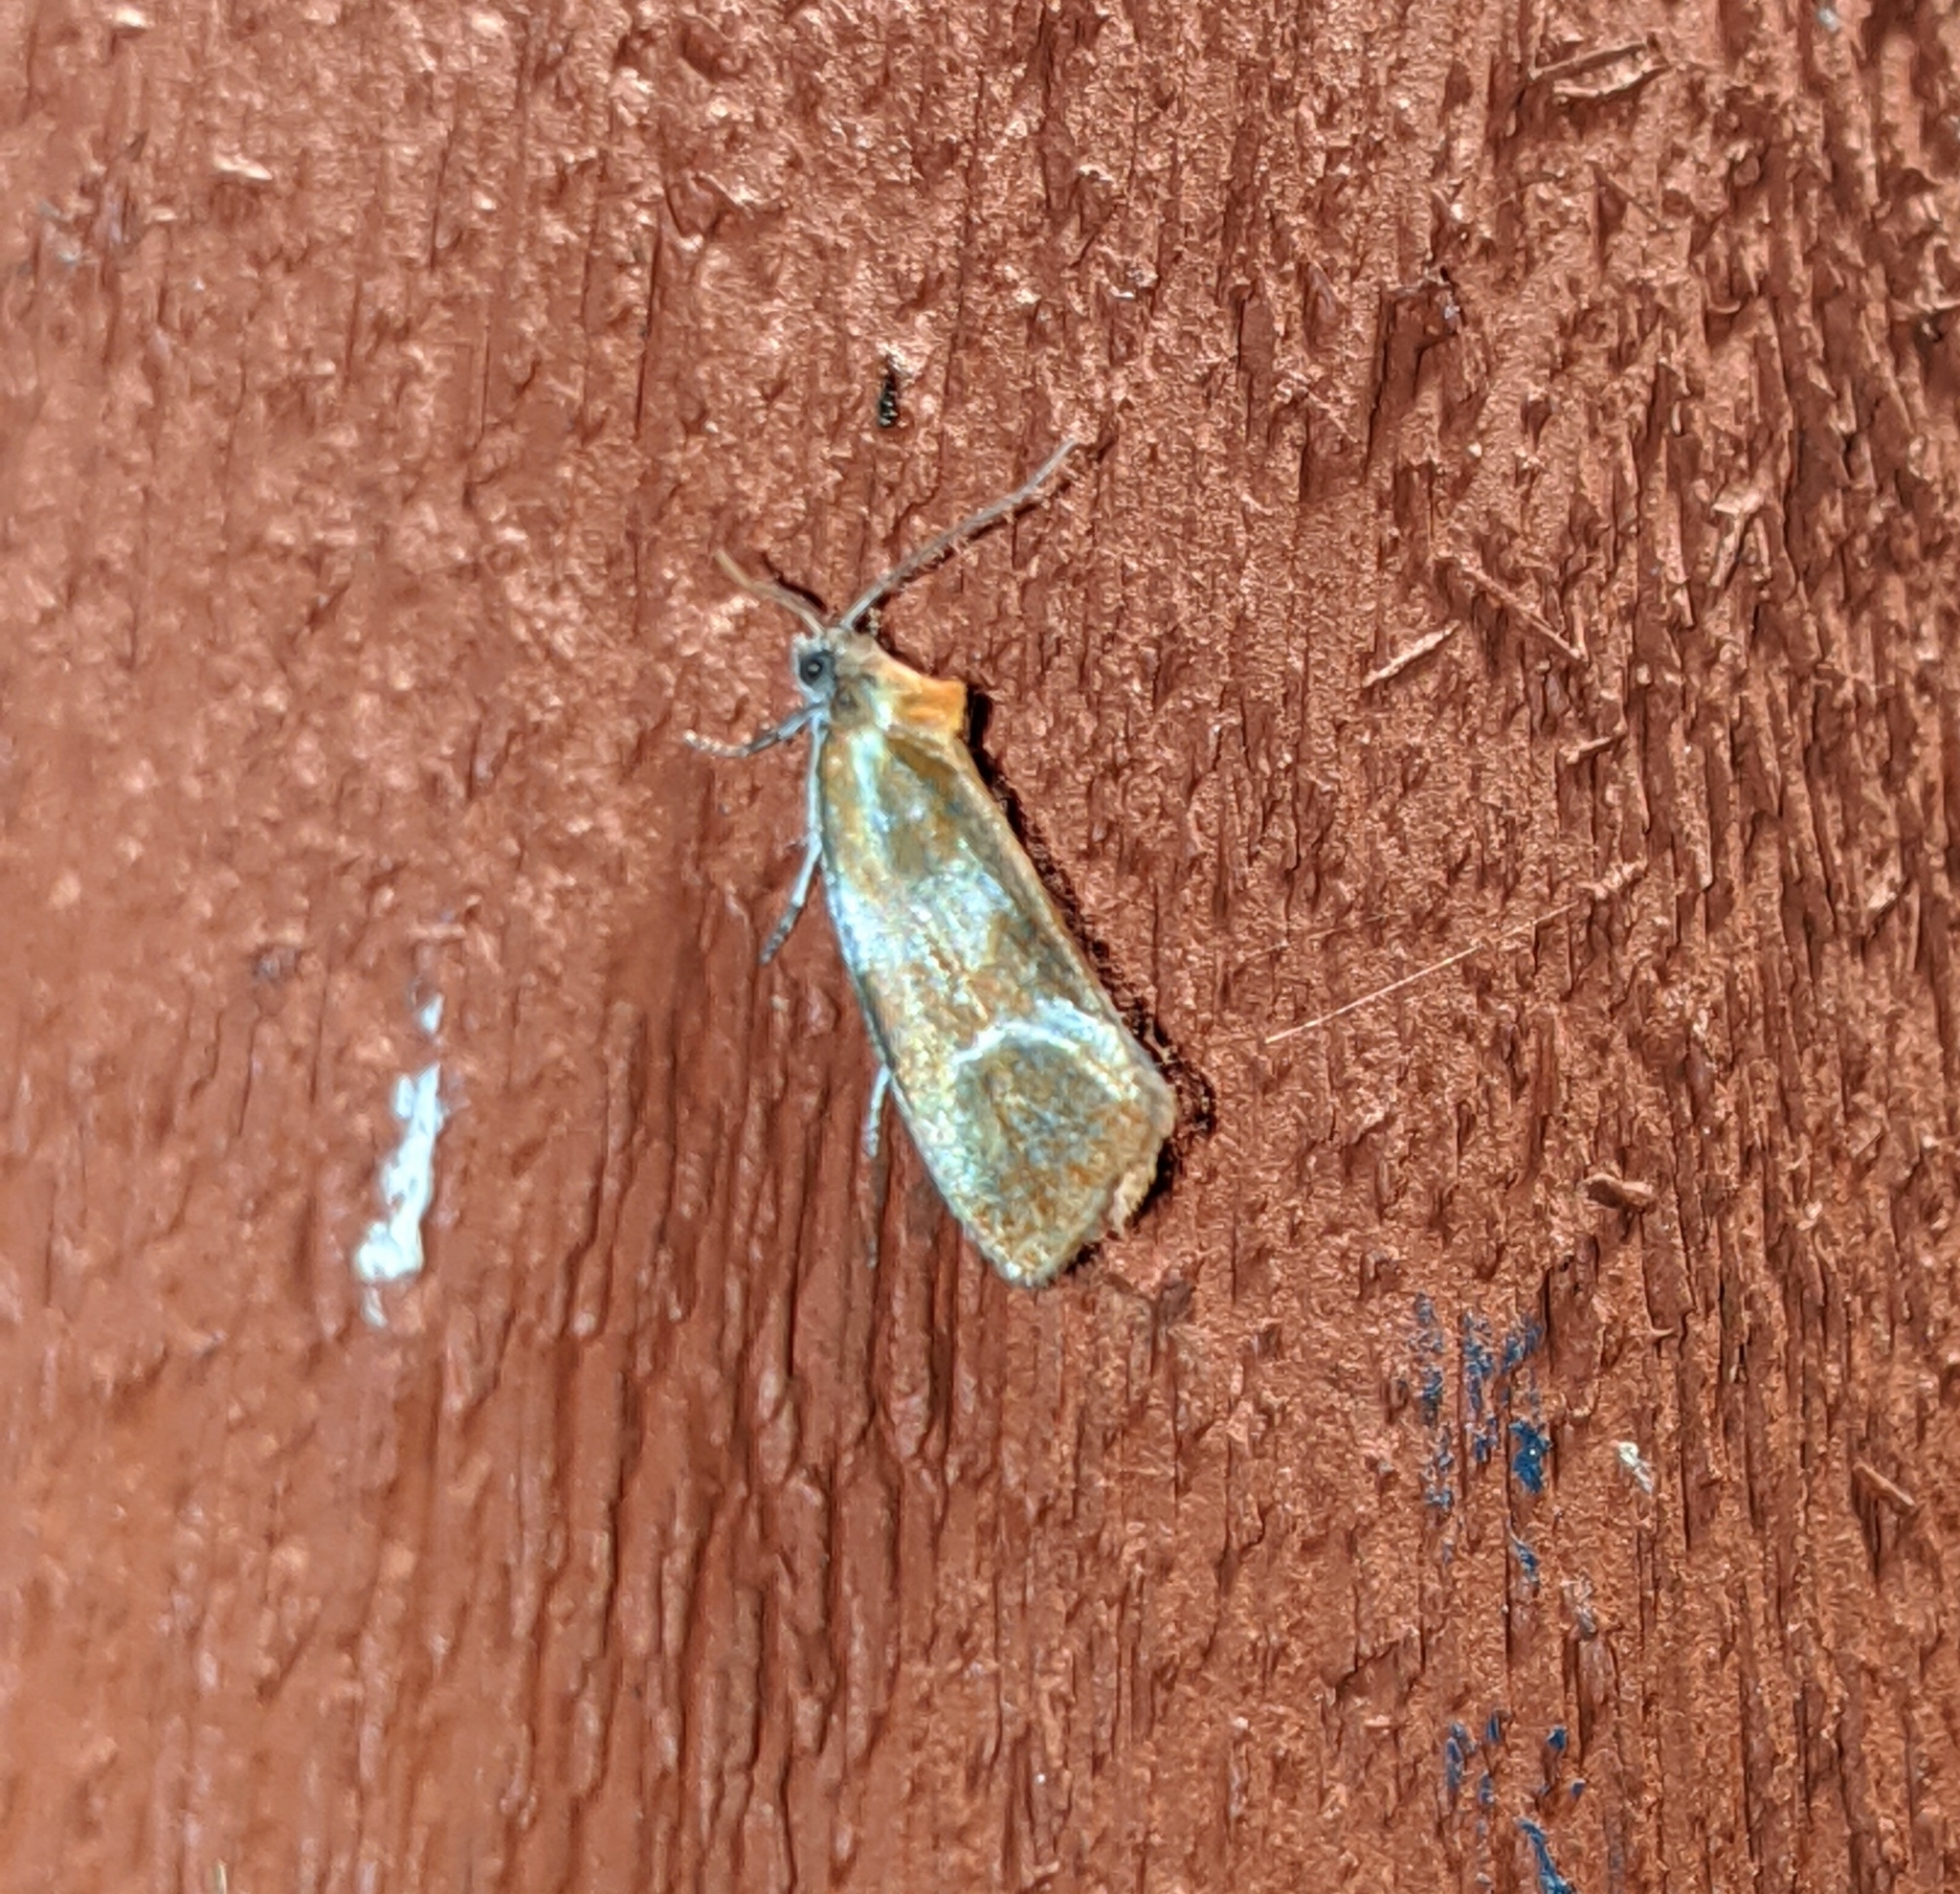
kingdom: Animalia
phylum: Arthropoda
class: Insecta
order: Lepidoptera
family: Tortricidae
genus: Eulia
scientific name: Eulia ministrana
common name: Brassy twist
